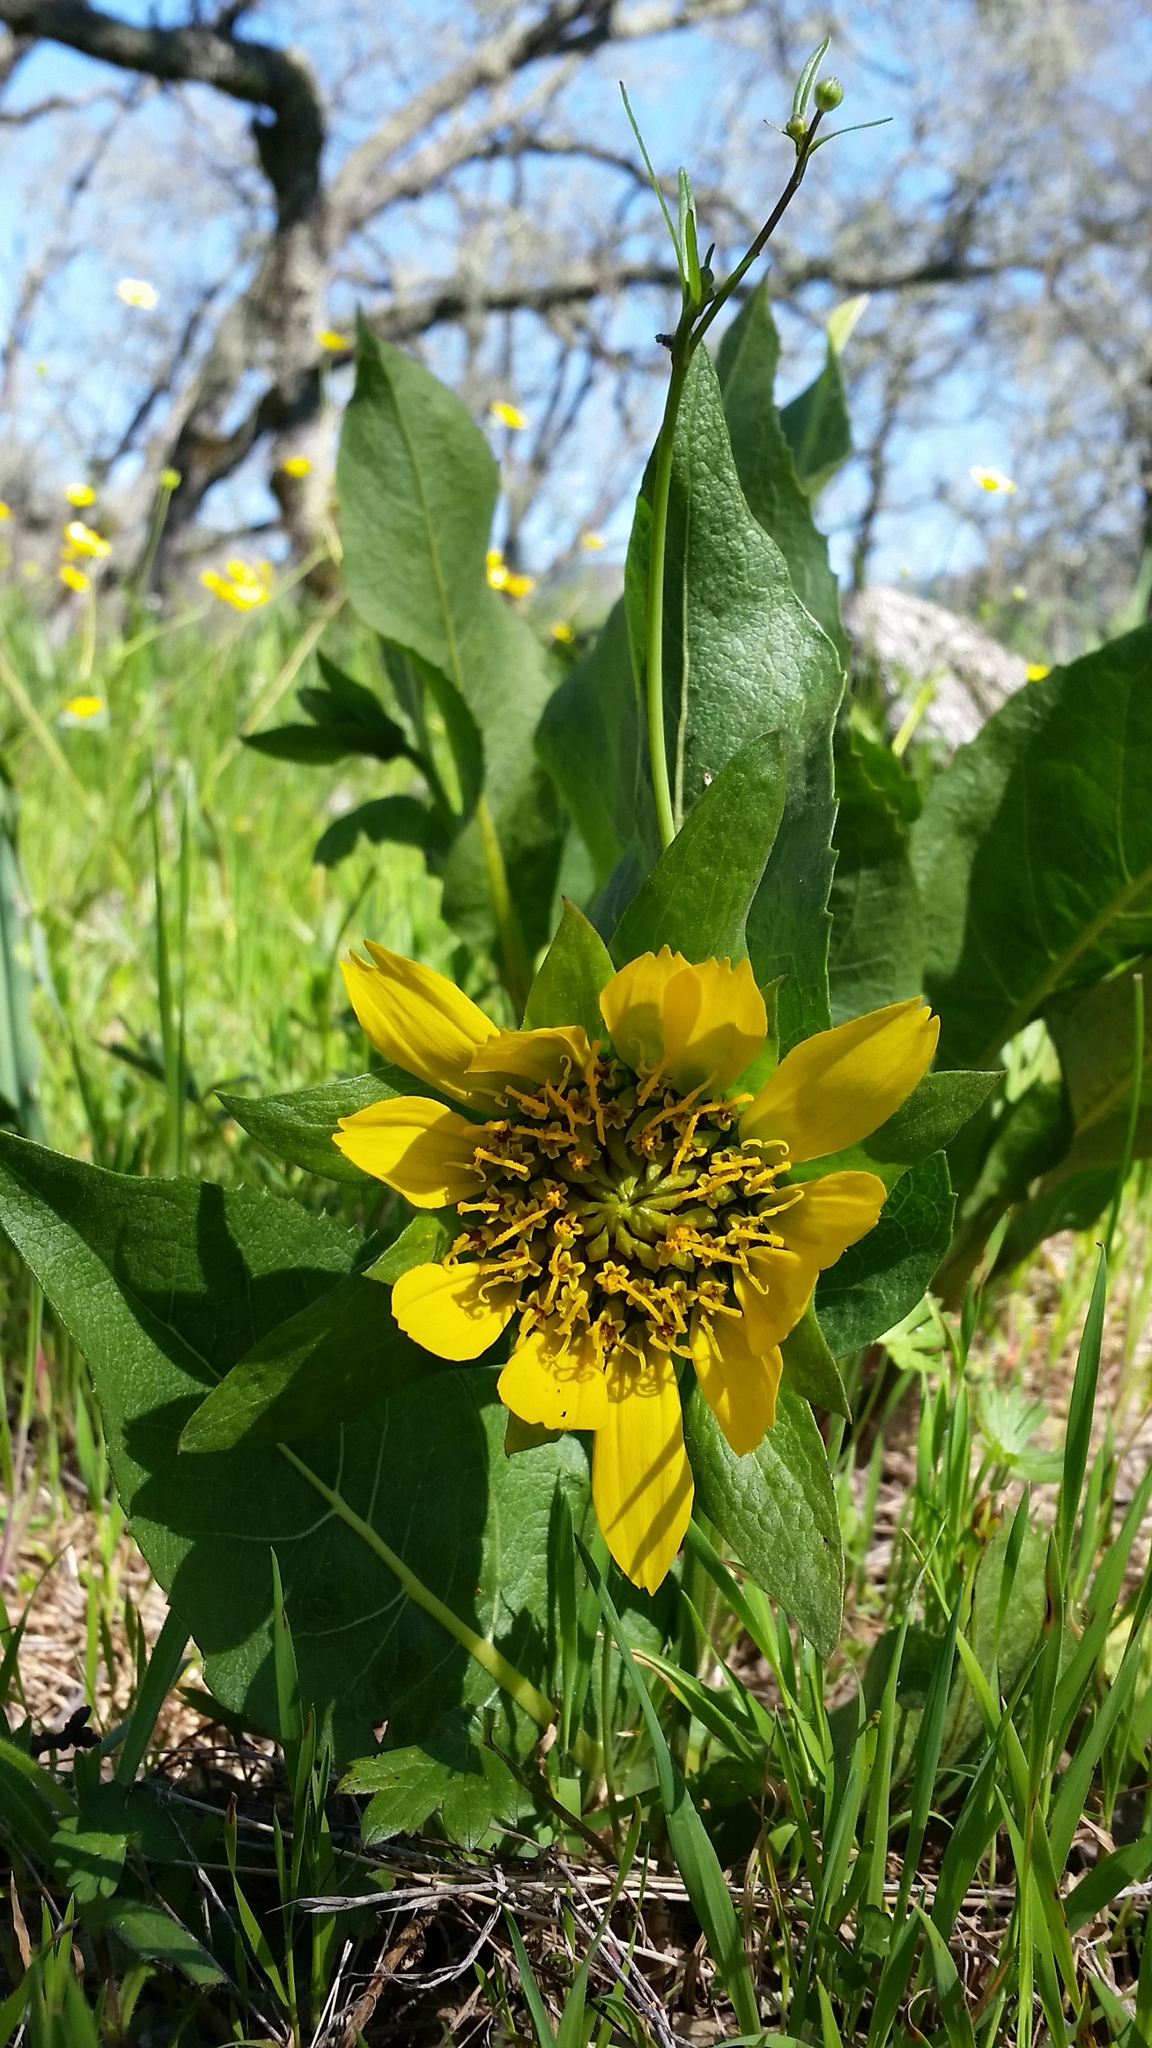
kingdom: Plantae
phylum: Tracheophyta
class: Magnoliopsida
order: Asterales
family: Asteraceae
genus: Wyethia
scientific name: Wyethia glabra
